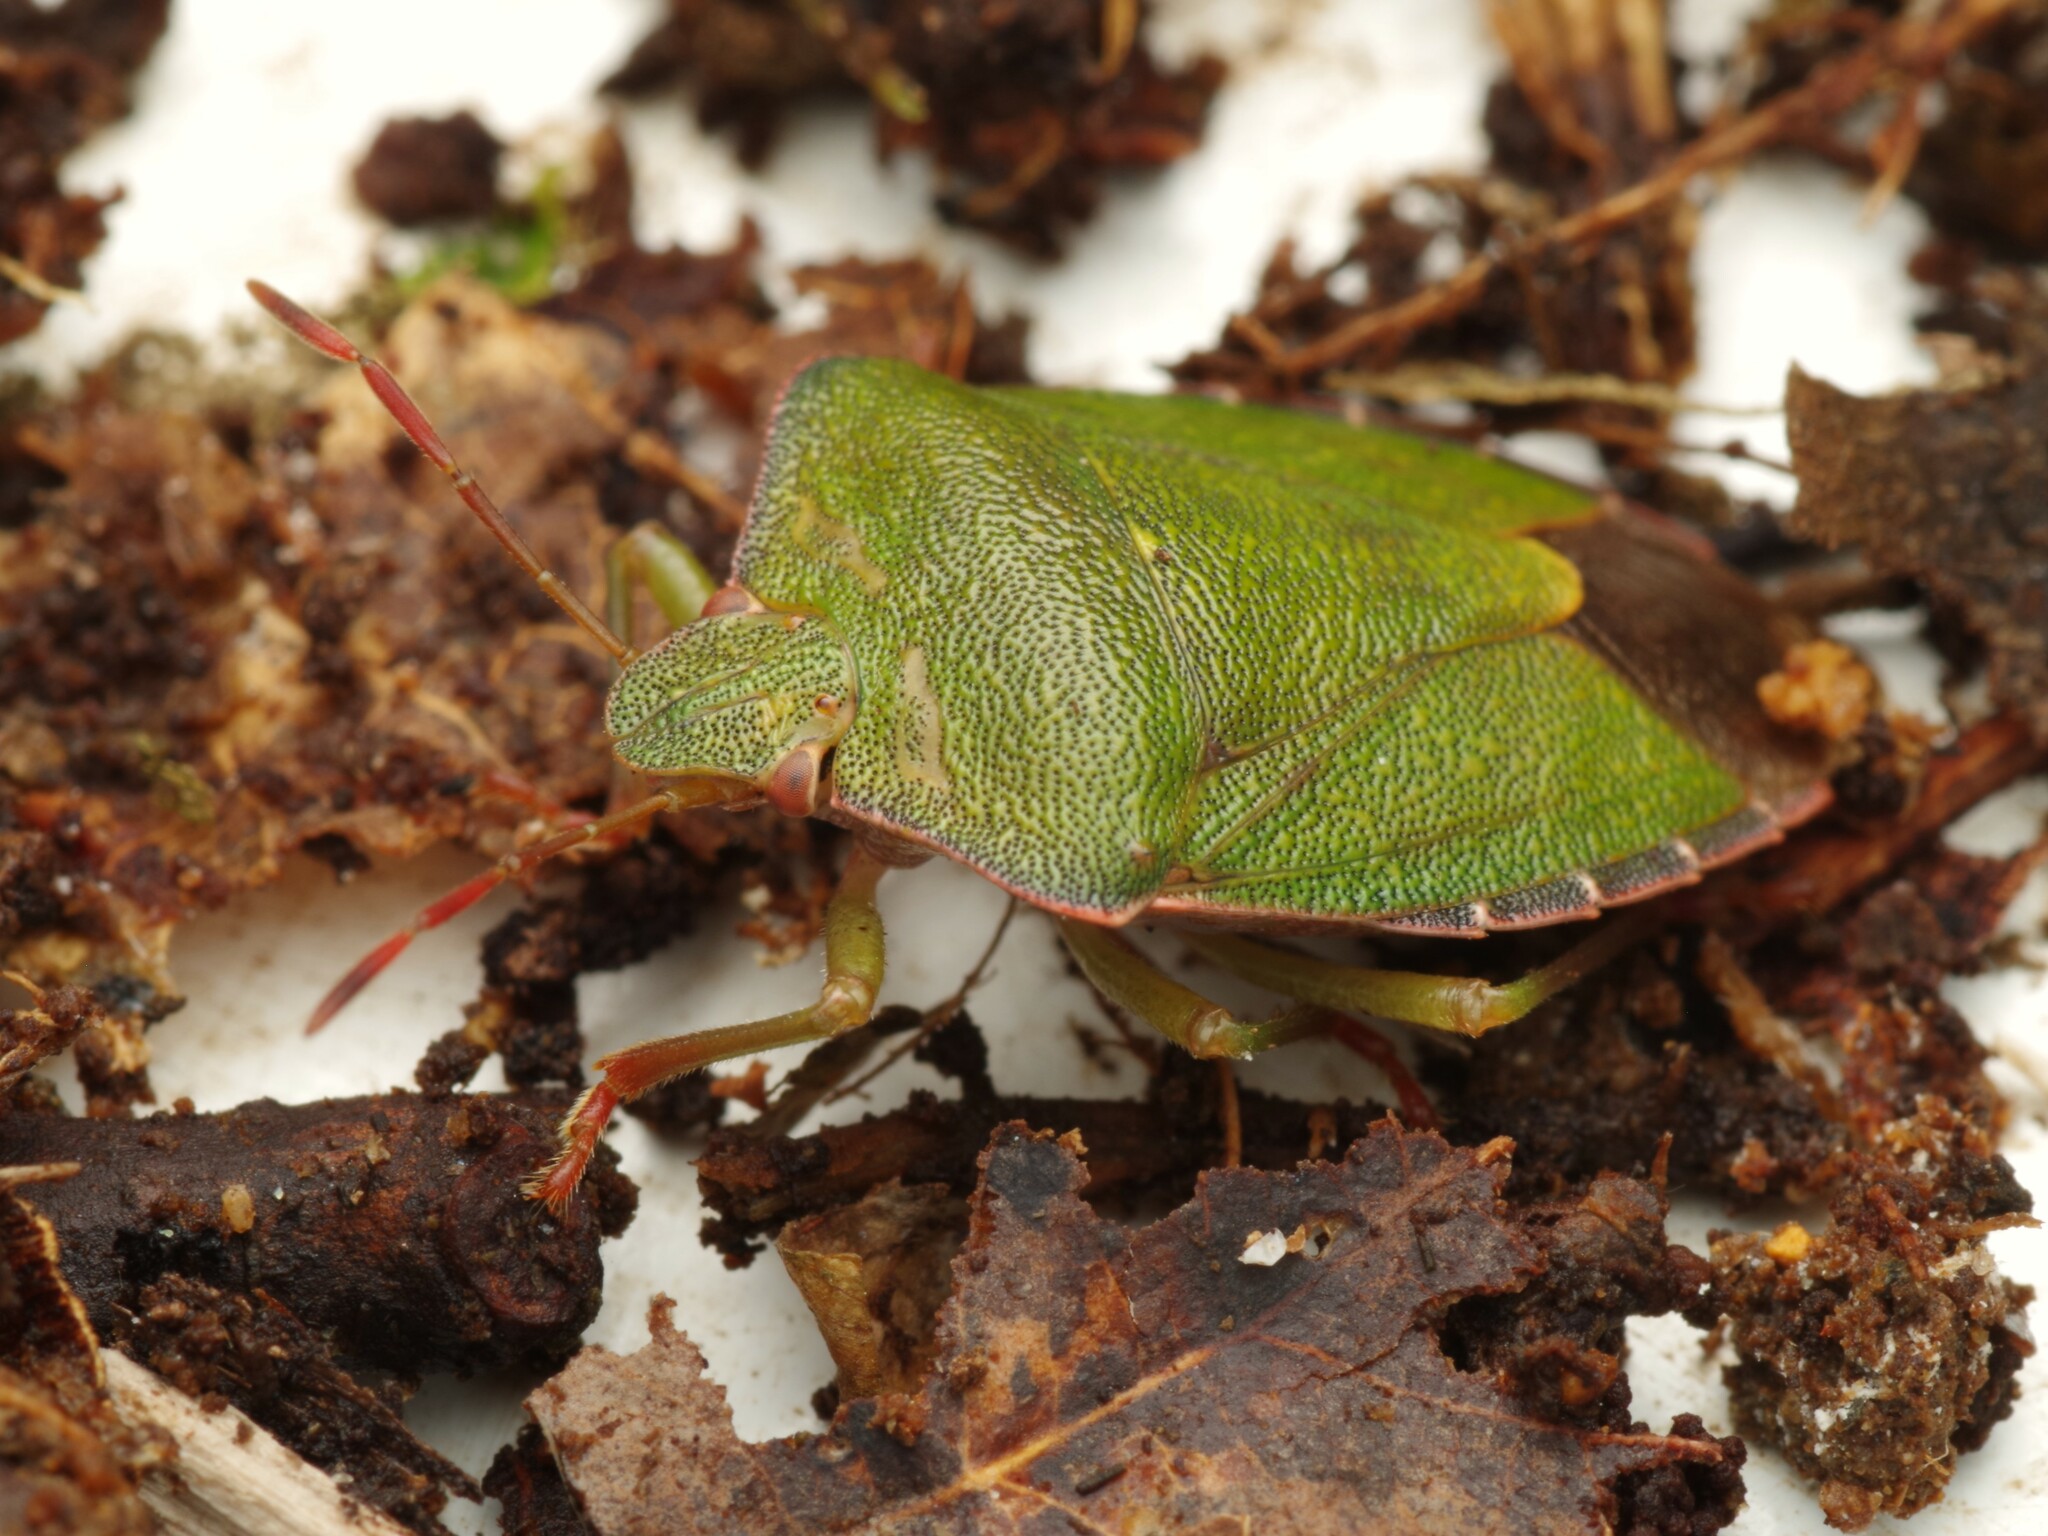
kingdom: Animalia
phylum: Arthropoda
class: Insecta
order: Hemiptera
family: Pentatomidae
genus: Palomena
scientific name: Palomena prasina
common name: Green shieldbug
